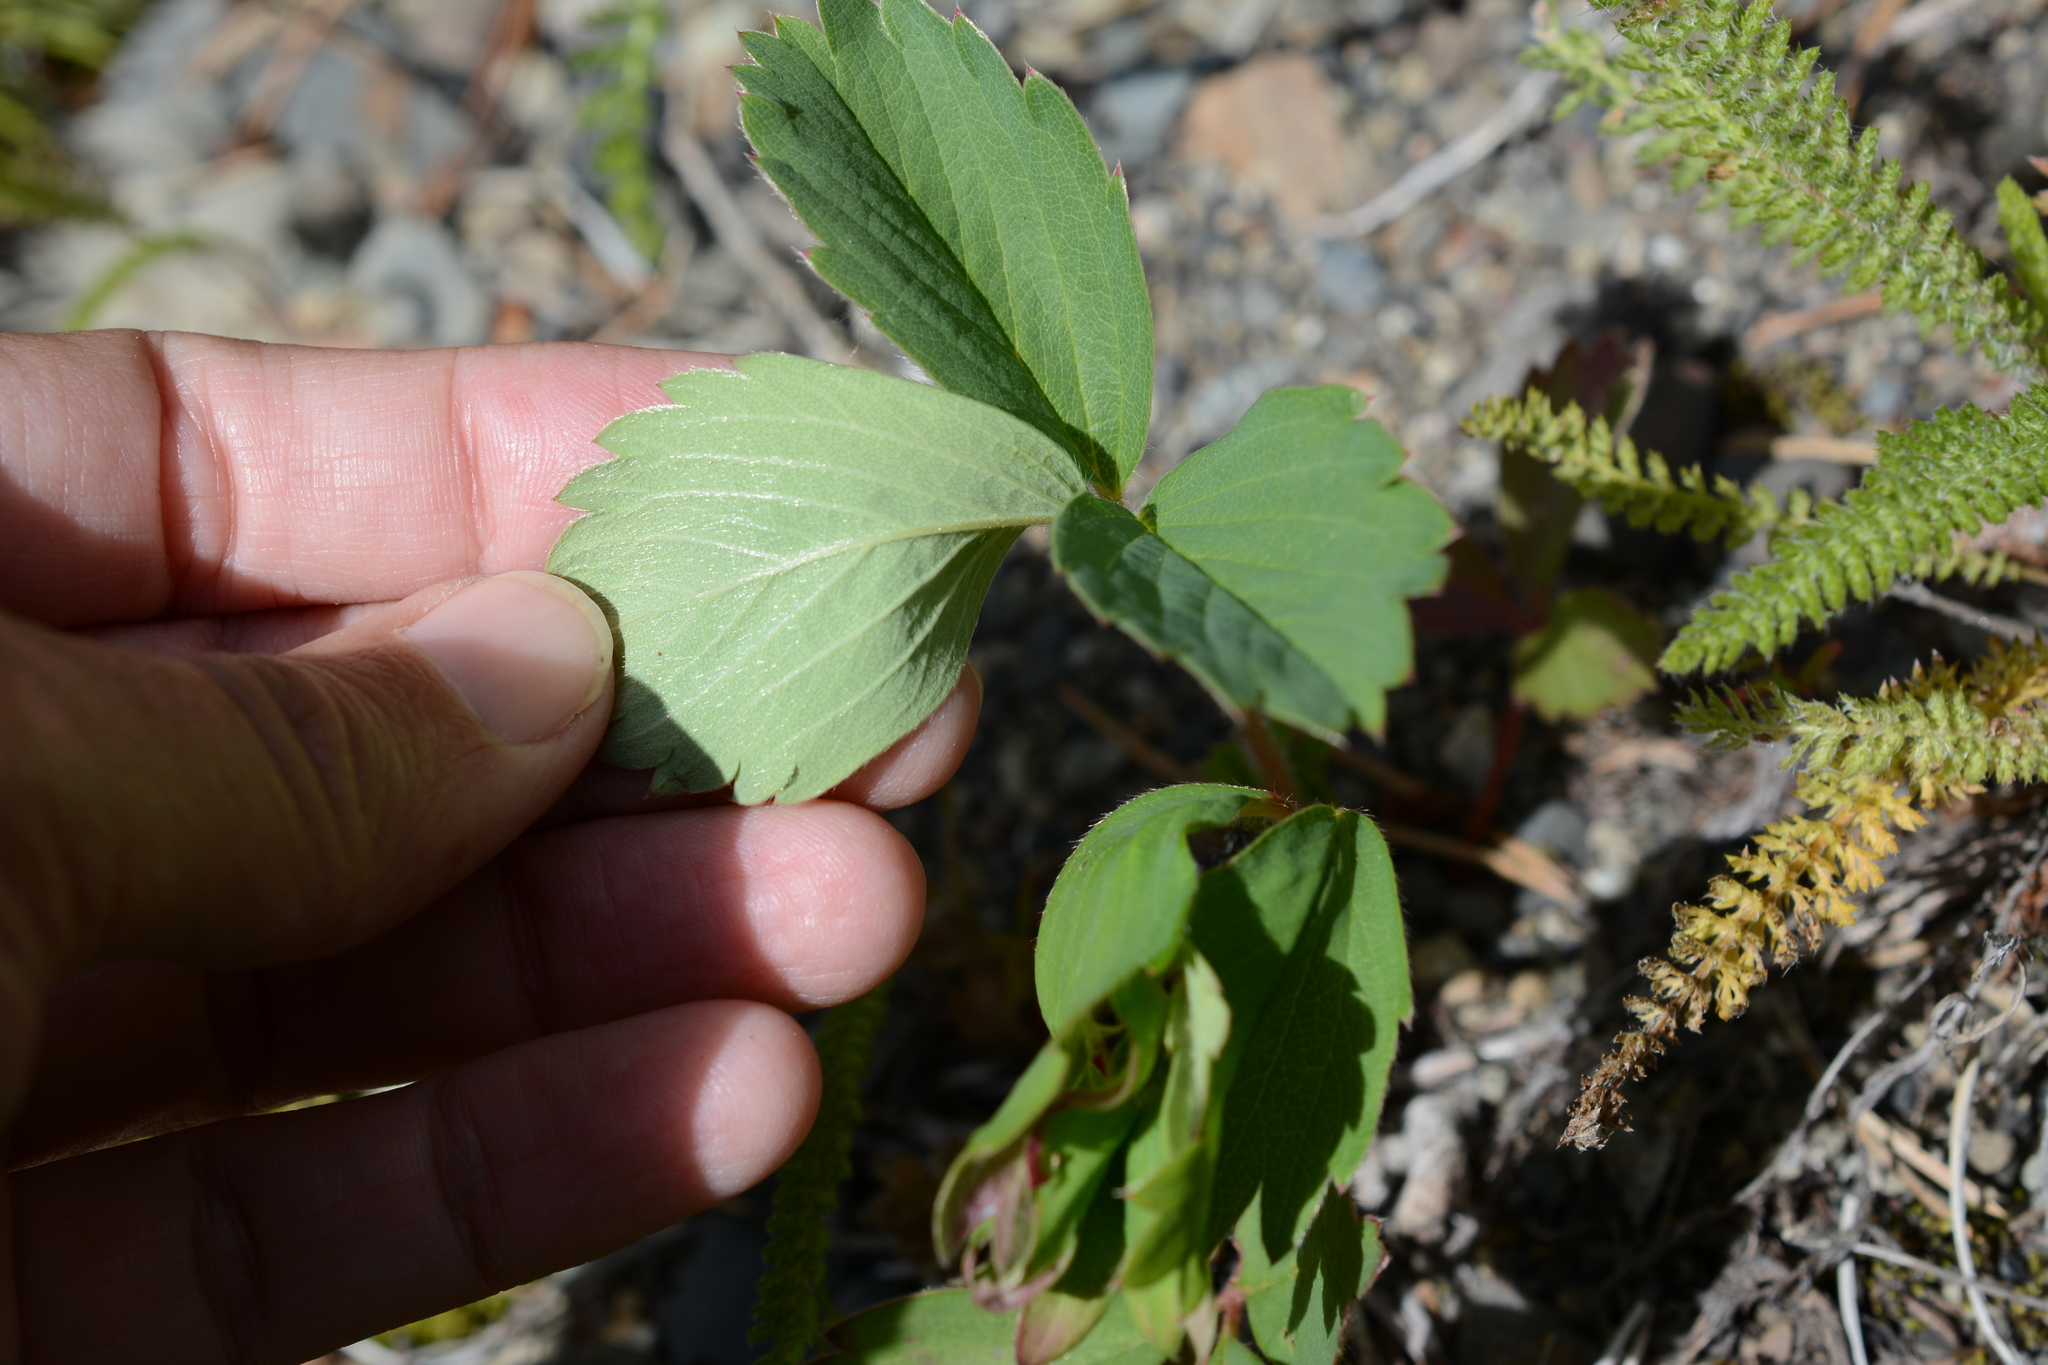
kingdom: Plantae
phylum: Tracheophyta
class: Magnoliopsida
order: Rosales
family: Rosaceae
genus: Fragaria
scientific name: Fragaria virginiana
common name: Thickleaved wild strawberry
